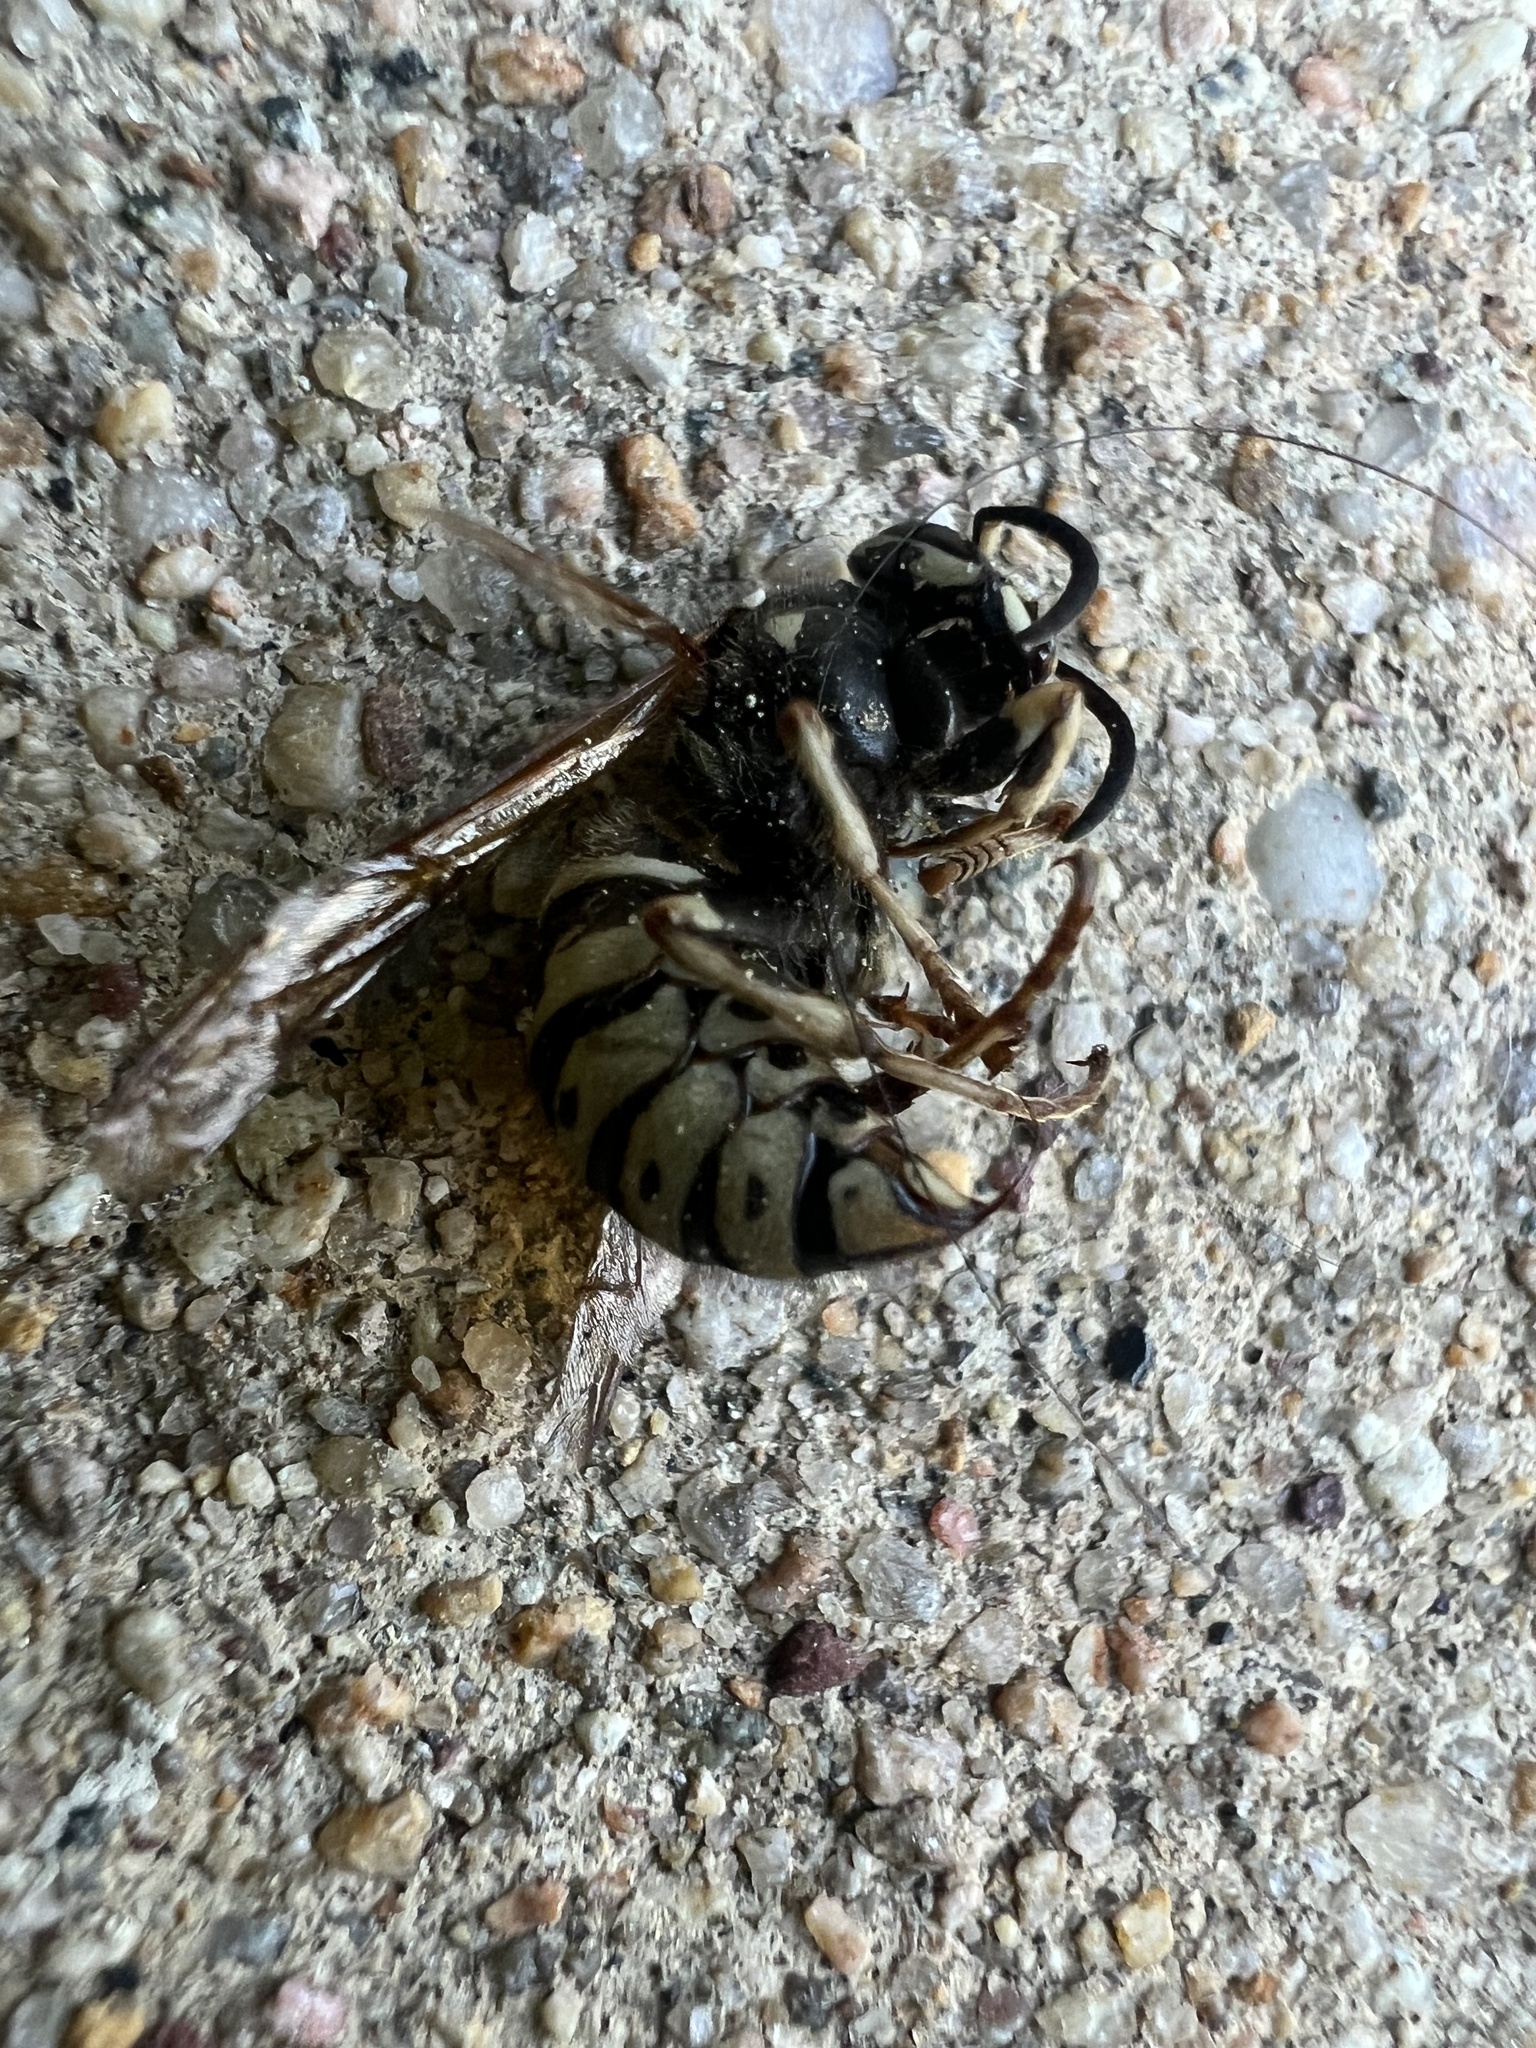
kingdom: Animalia
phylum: Arthropoda
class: Insecta
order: Hymenoptera
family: Vespidae
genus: Dolichovespula
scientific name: Dolichovespula adulterina
